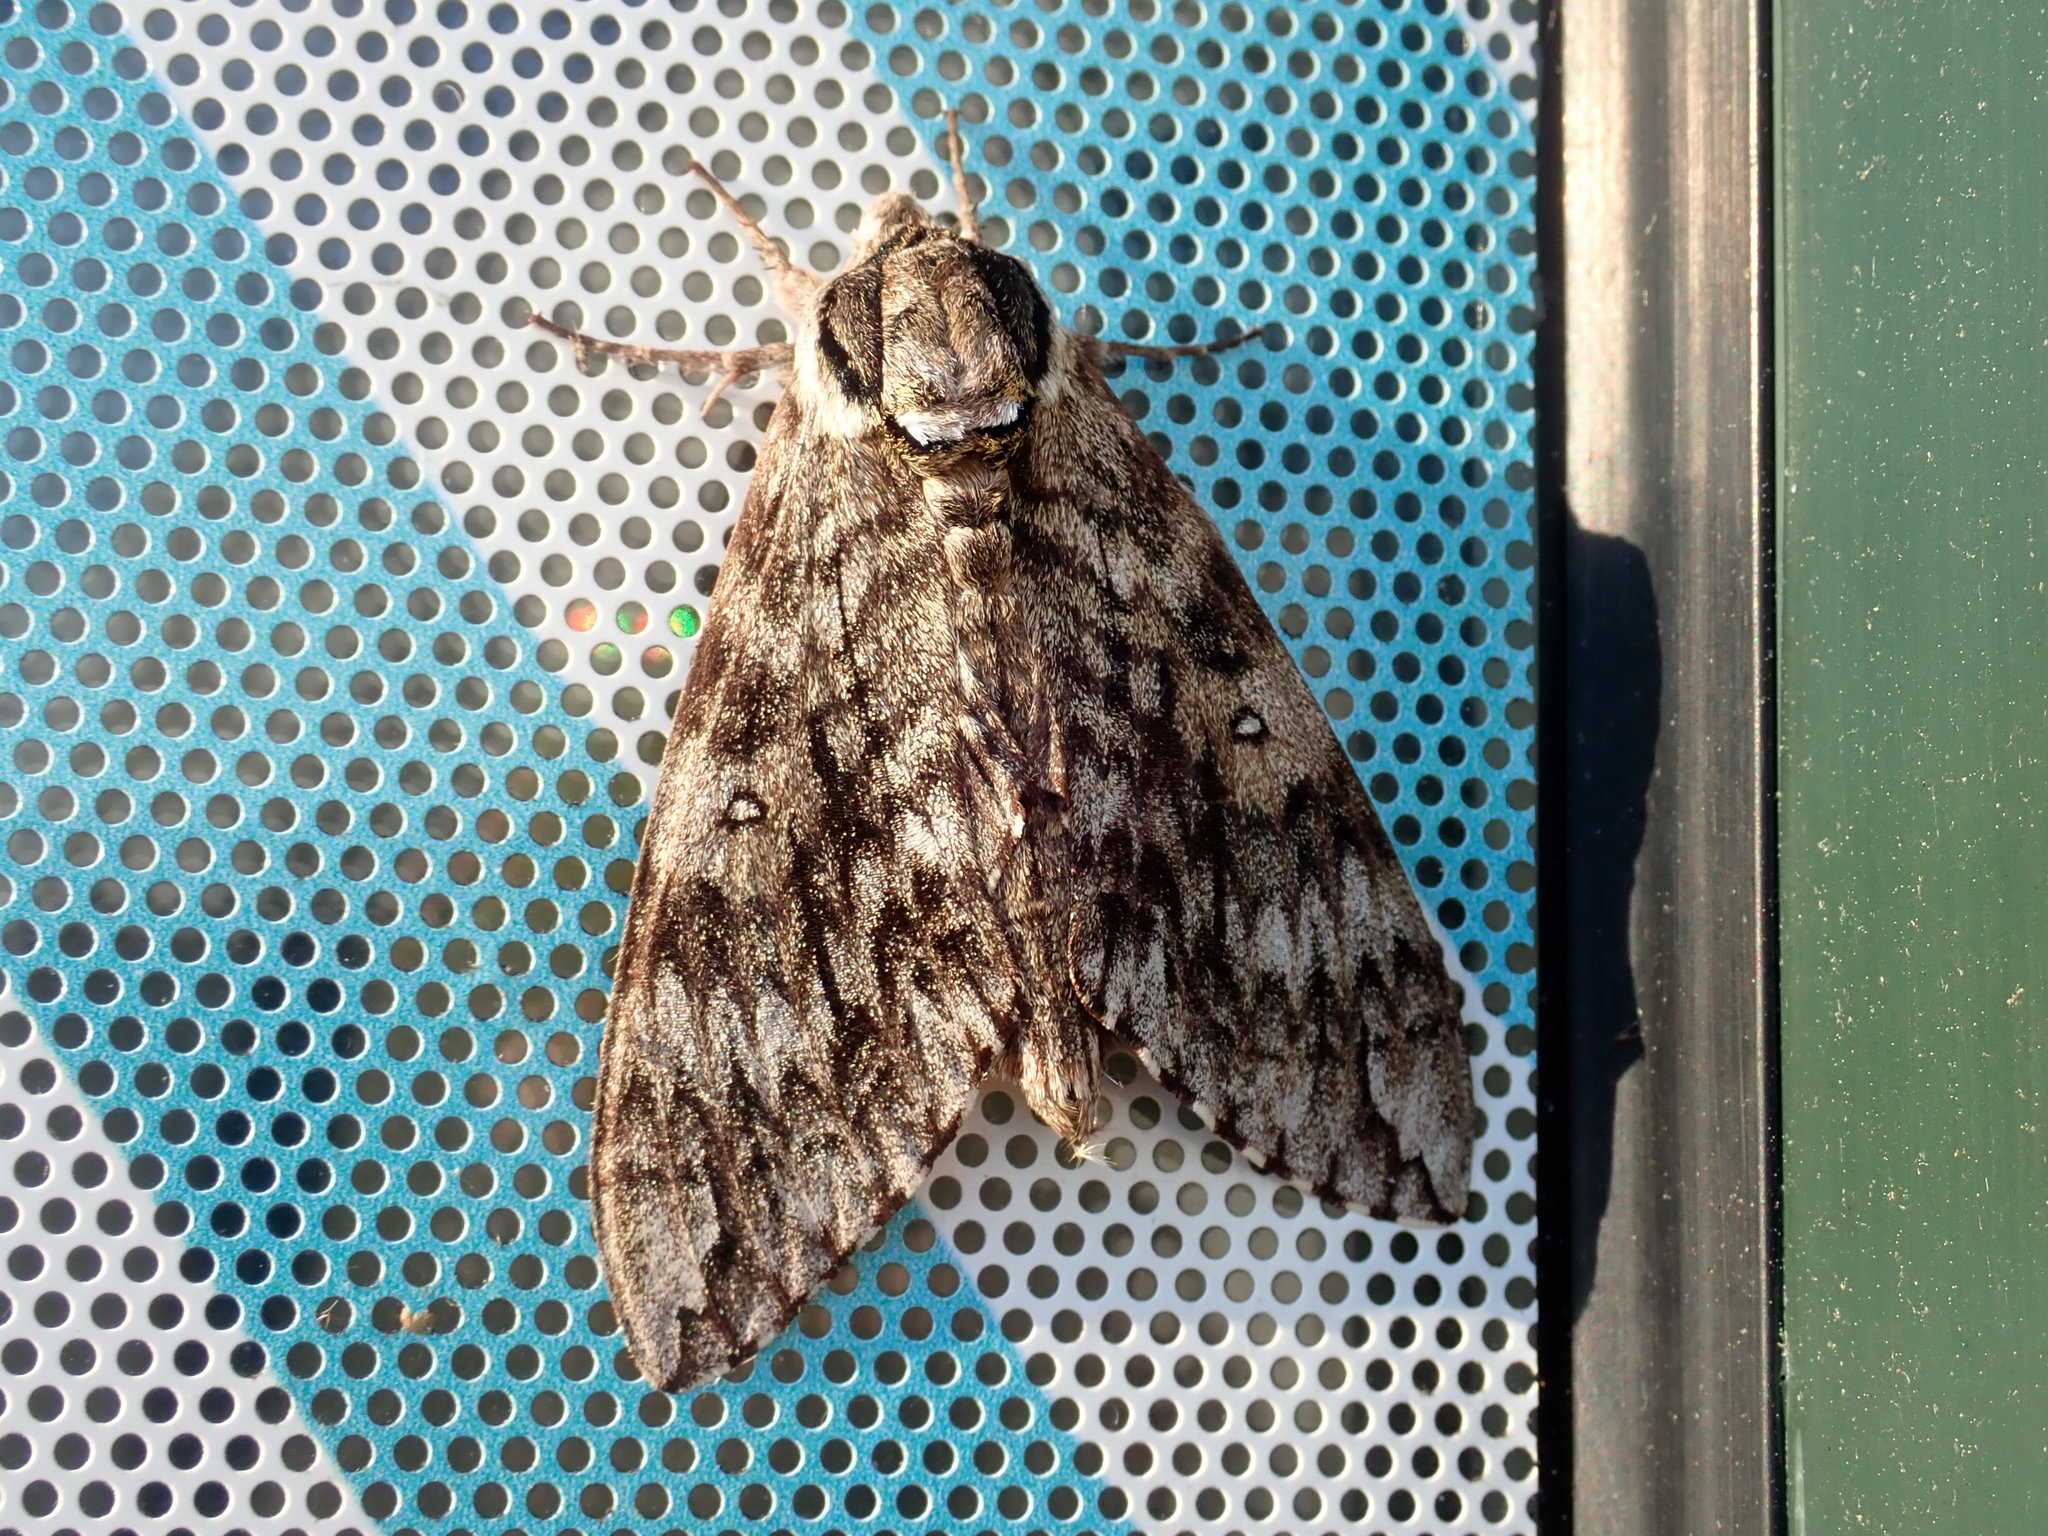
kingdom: Animalia
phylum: Arthropoda
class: Insecta
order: Lepidoptera
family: Sphingidae
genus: Ceratomia
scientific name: Ceratomia undulosa
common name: Waved sphinx
